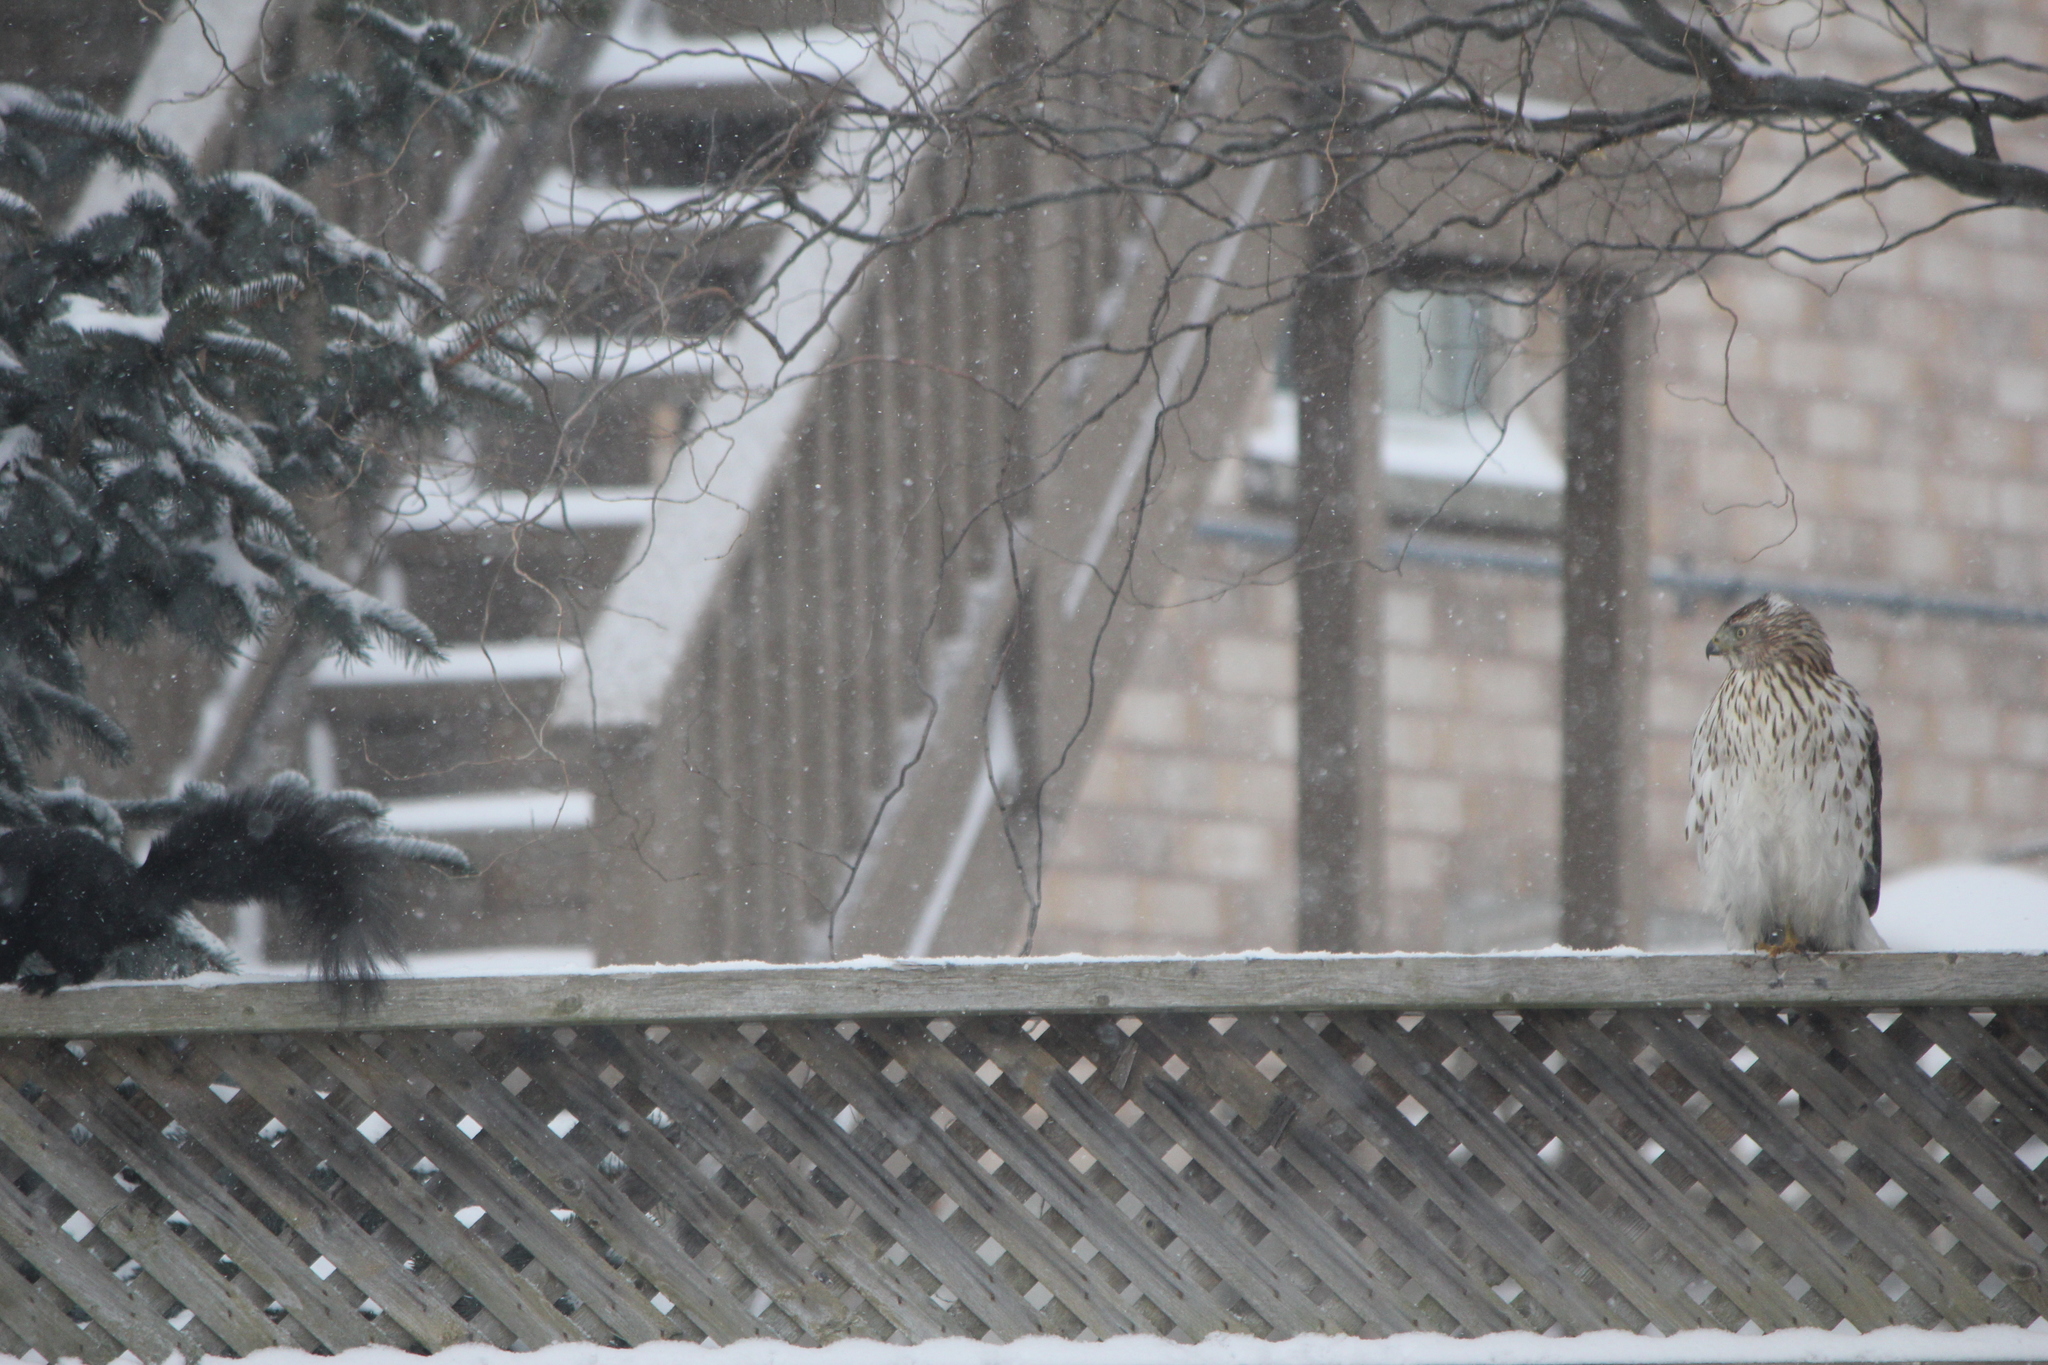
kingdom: Animalia
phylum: Chordata
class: Mammalia
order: Rodentia
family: Sciuridae
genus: Sciurus
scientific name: Sciurus carolinensis
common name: Eastern gray squirrel
